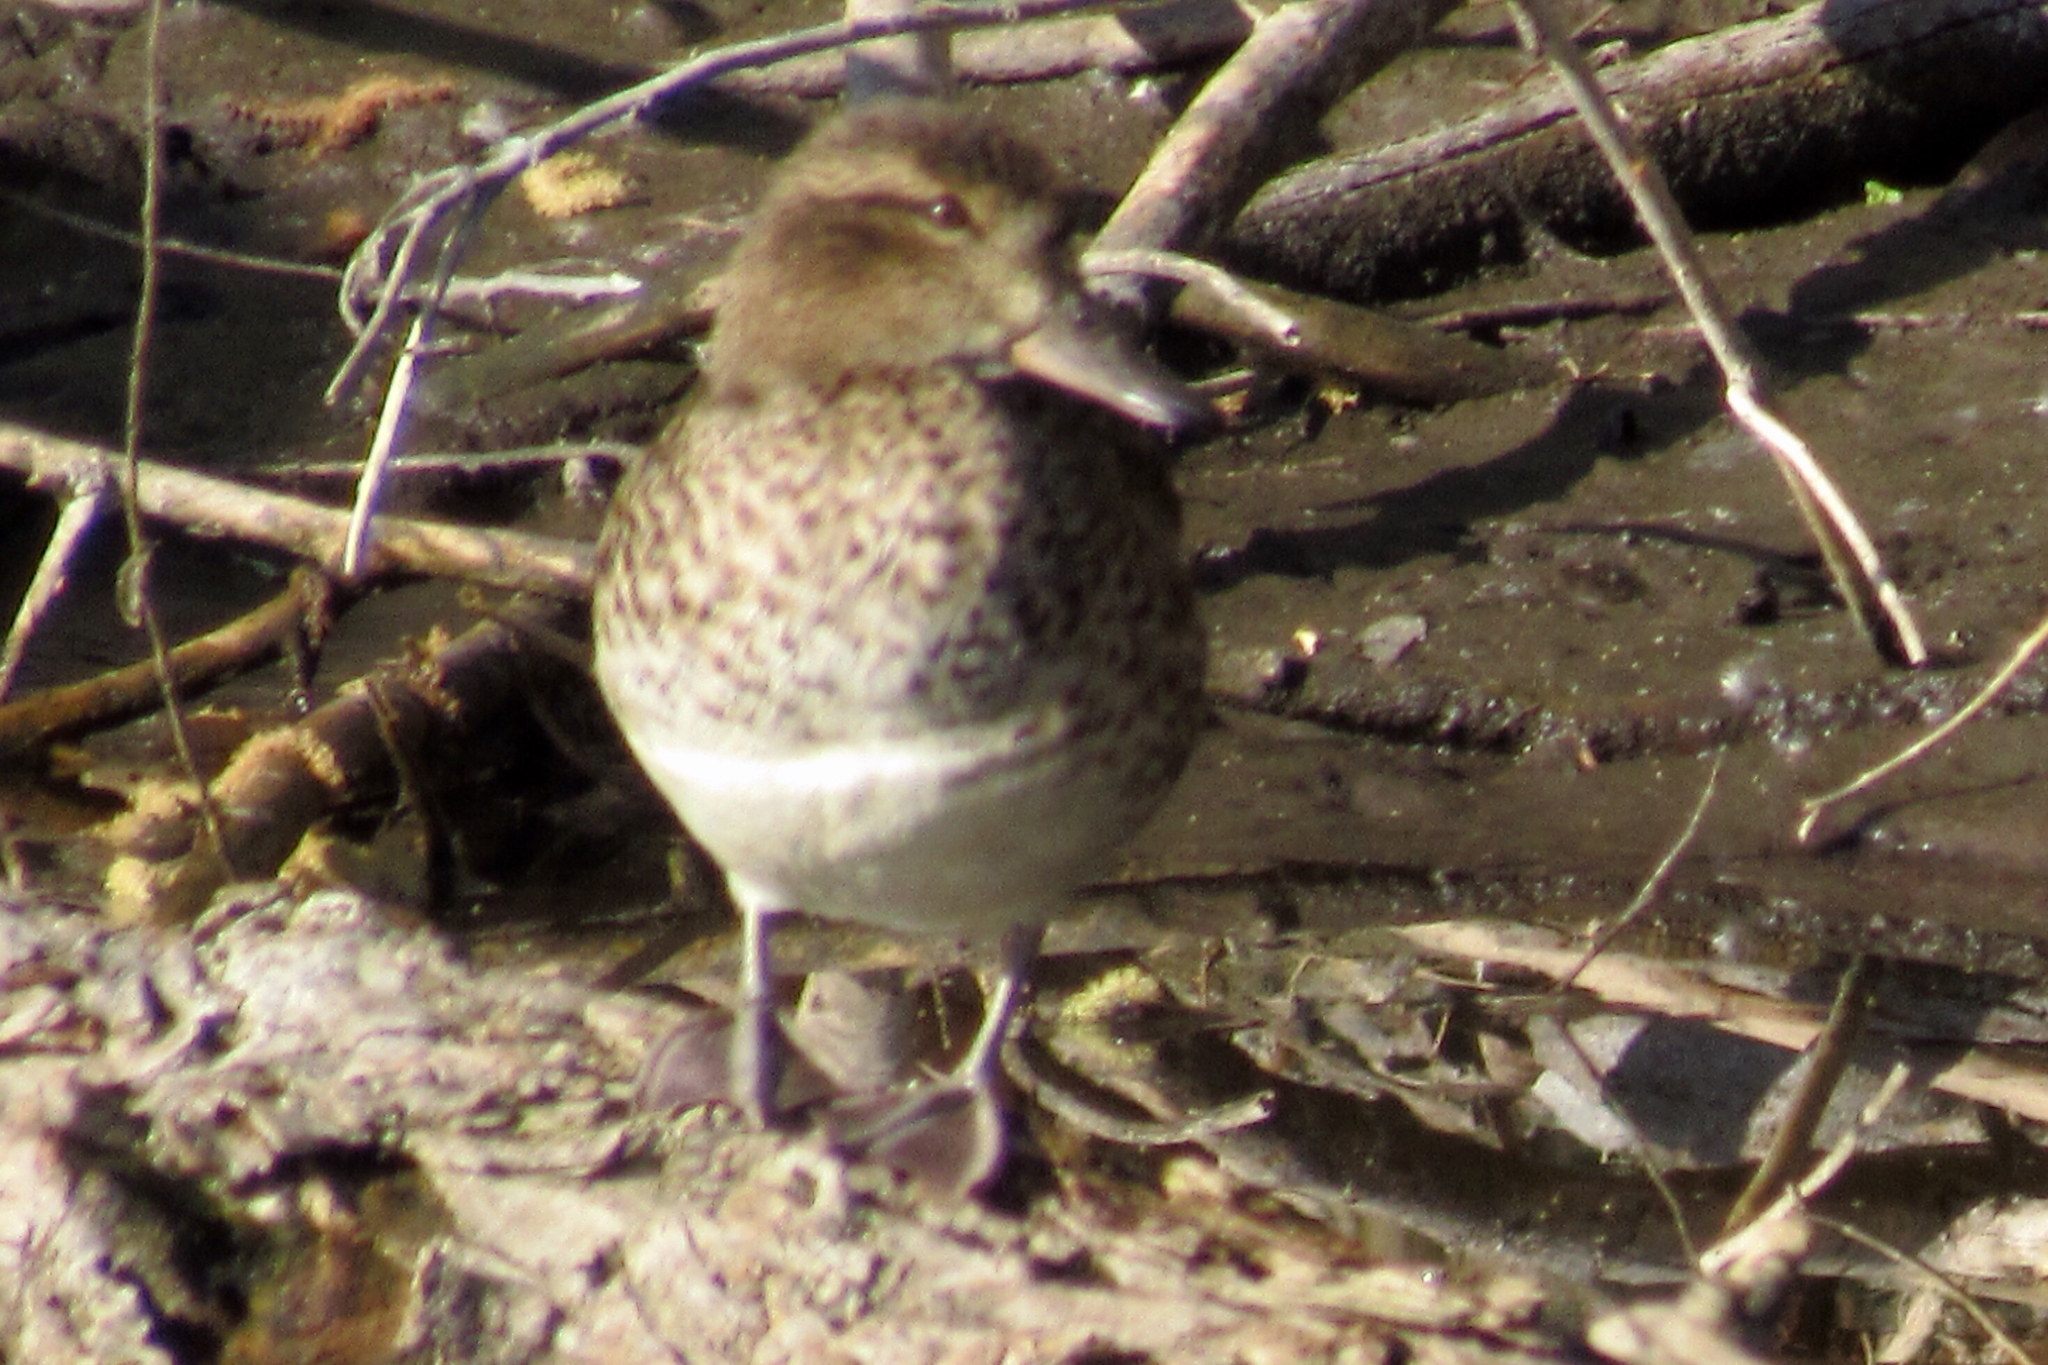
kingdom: Animalia
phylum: Chordata
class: Aves
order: Anseriformes
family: Anatidae
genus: Anas
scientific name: Anas crecca
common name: Eurasian teal
